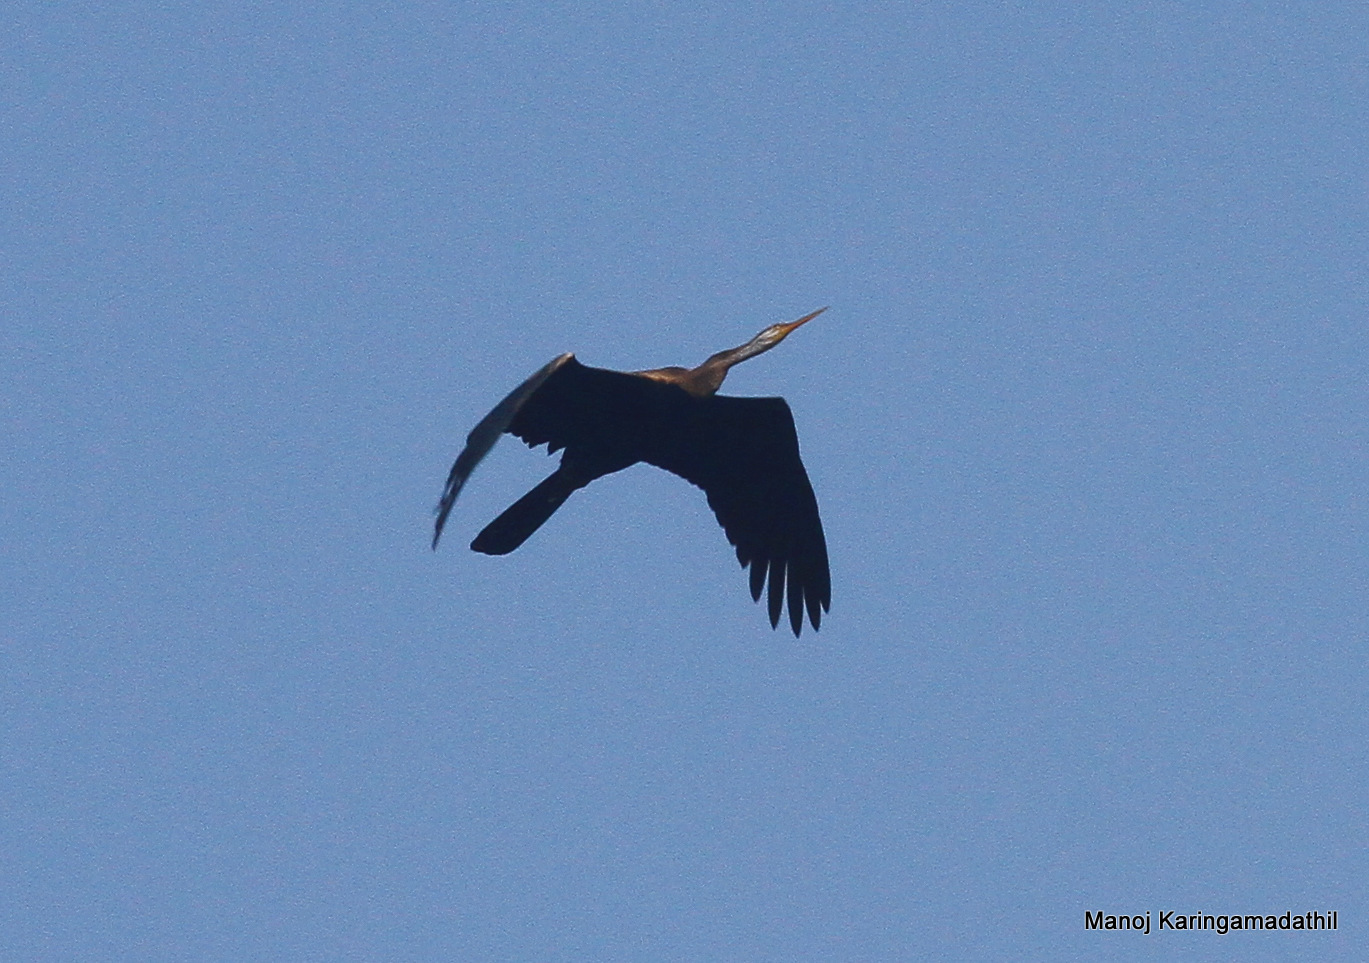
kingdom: Animalia
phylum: Chordata
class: Aves
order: Suliformes
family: Anhingidae
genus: Anhinga
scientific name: Anhinga melanogaster
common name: Oriental darter
